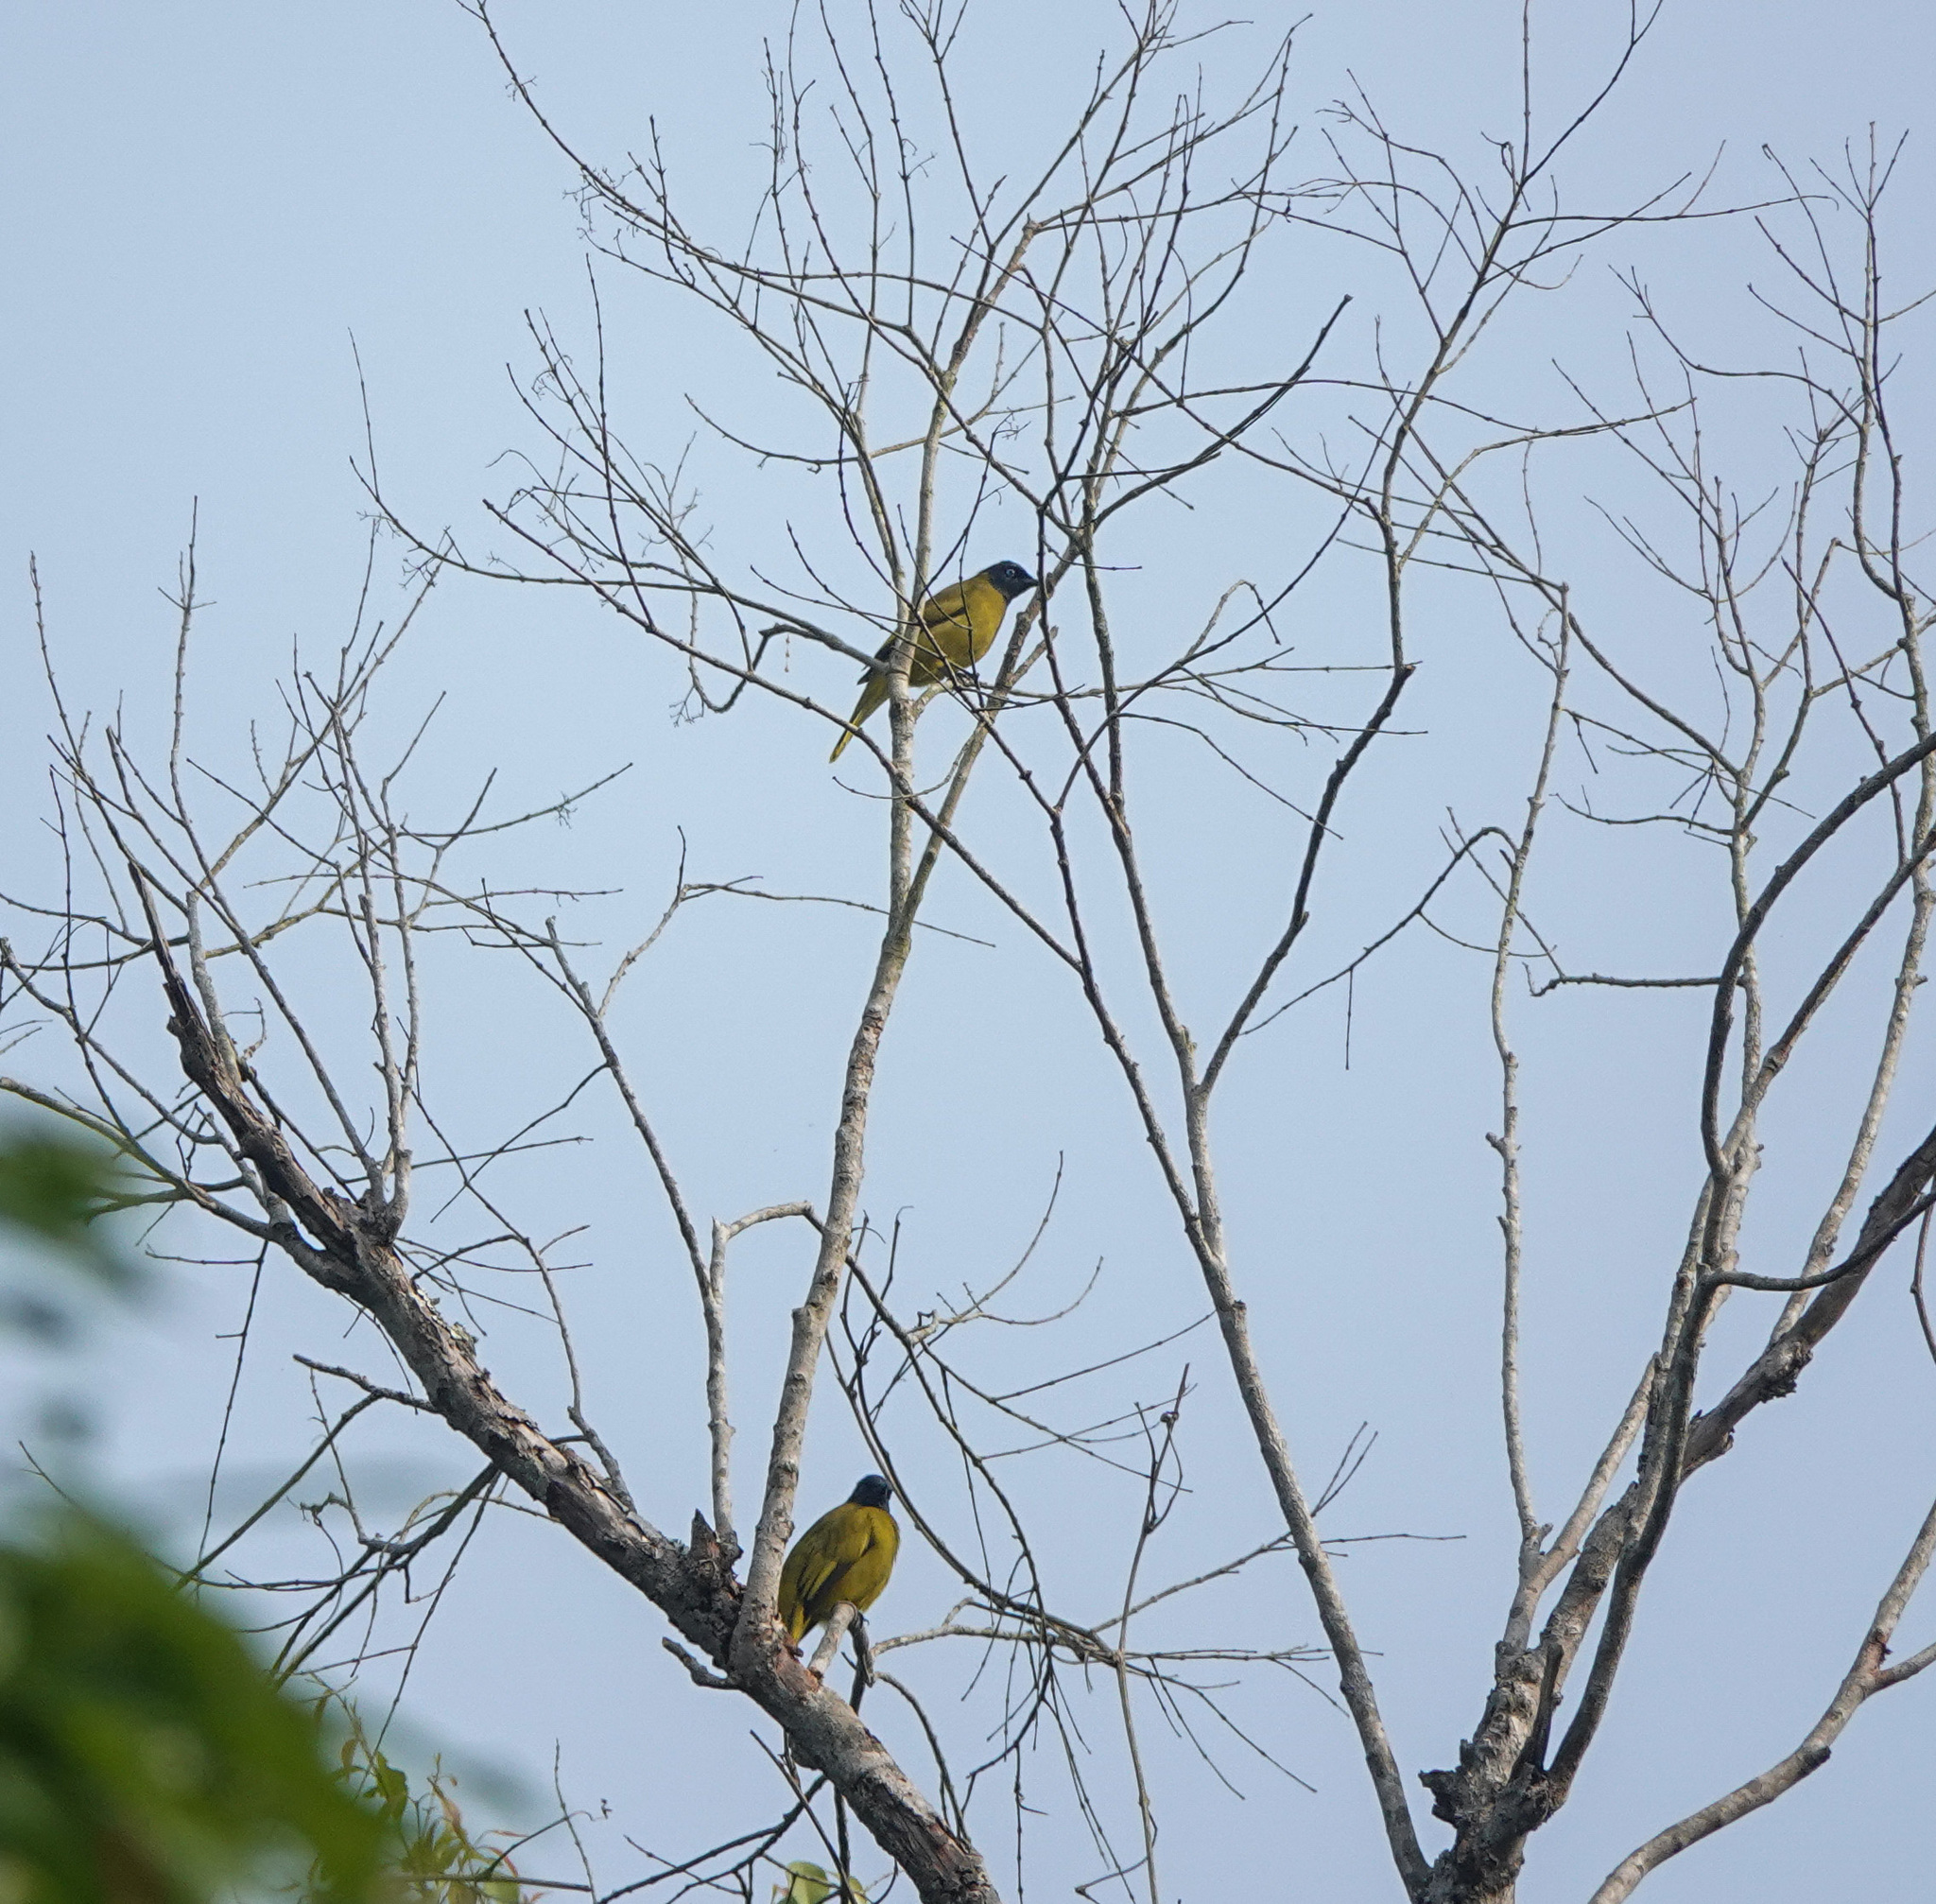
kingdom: Animalia
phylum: Chordata
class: Aves
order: Passeriformes
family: Pycnonotidae
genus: Microtarsus
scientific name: Microtarsus
